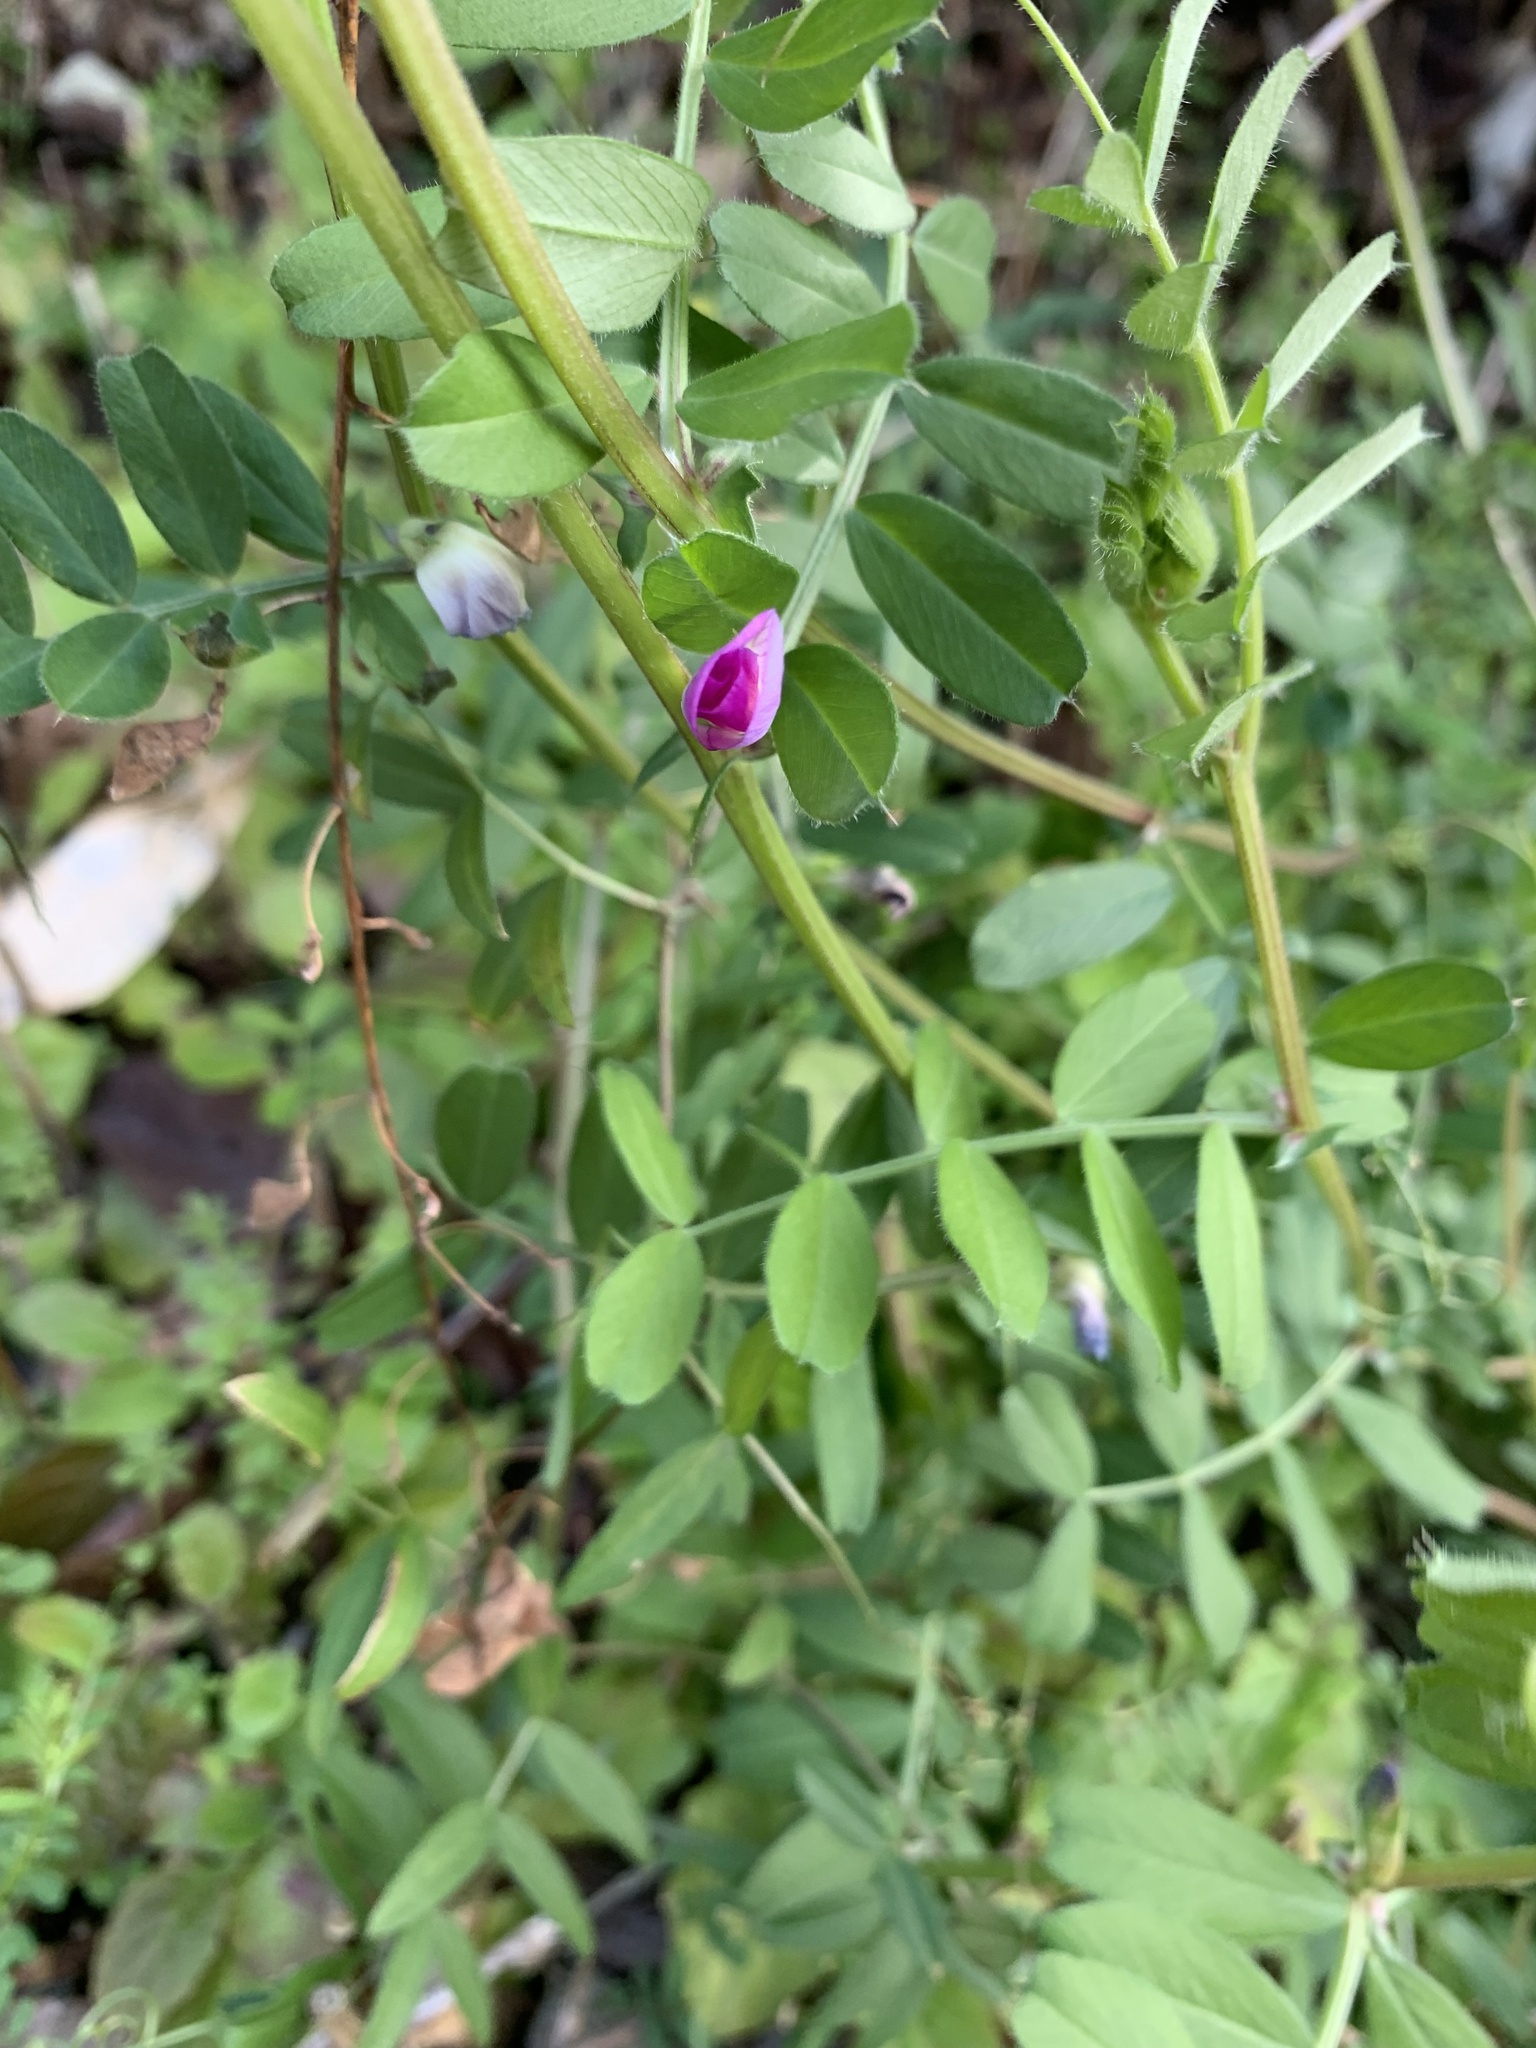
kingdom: Plantae
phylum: Tracheophyta
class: Magnoliopsida
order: Fabales
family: Fabaceae
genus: Vicia
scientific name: Vicia sativa
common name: Garden vetch
